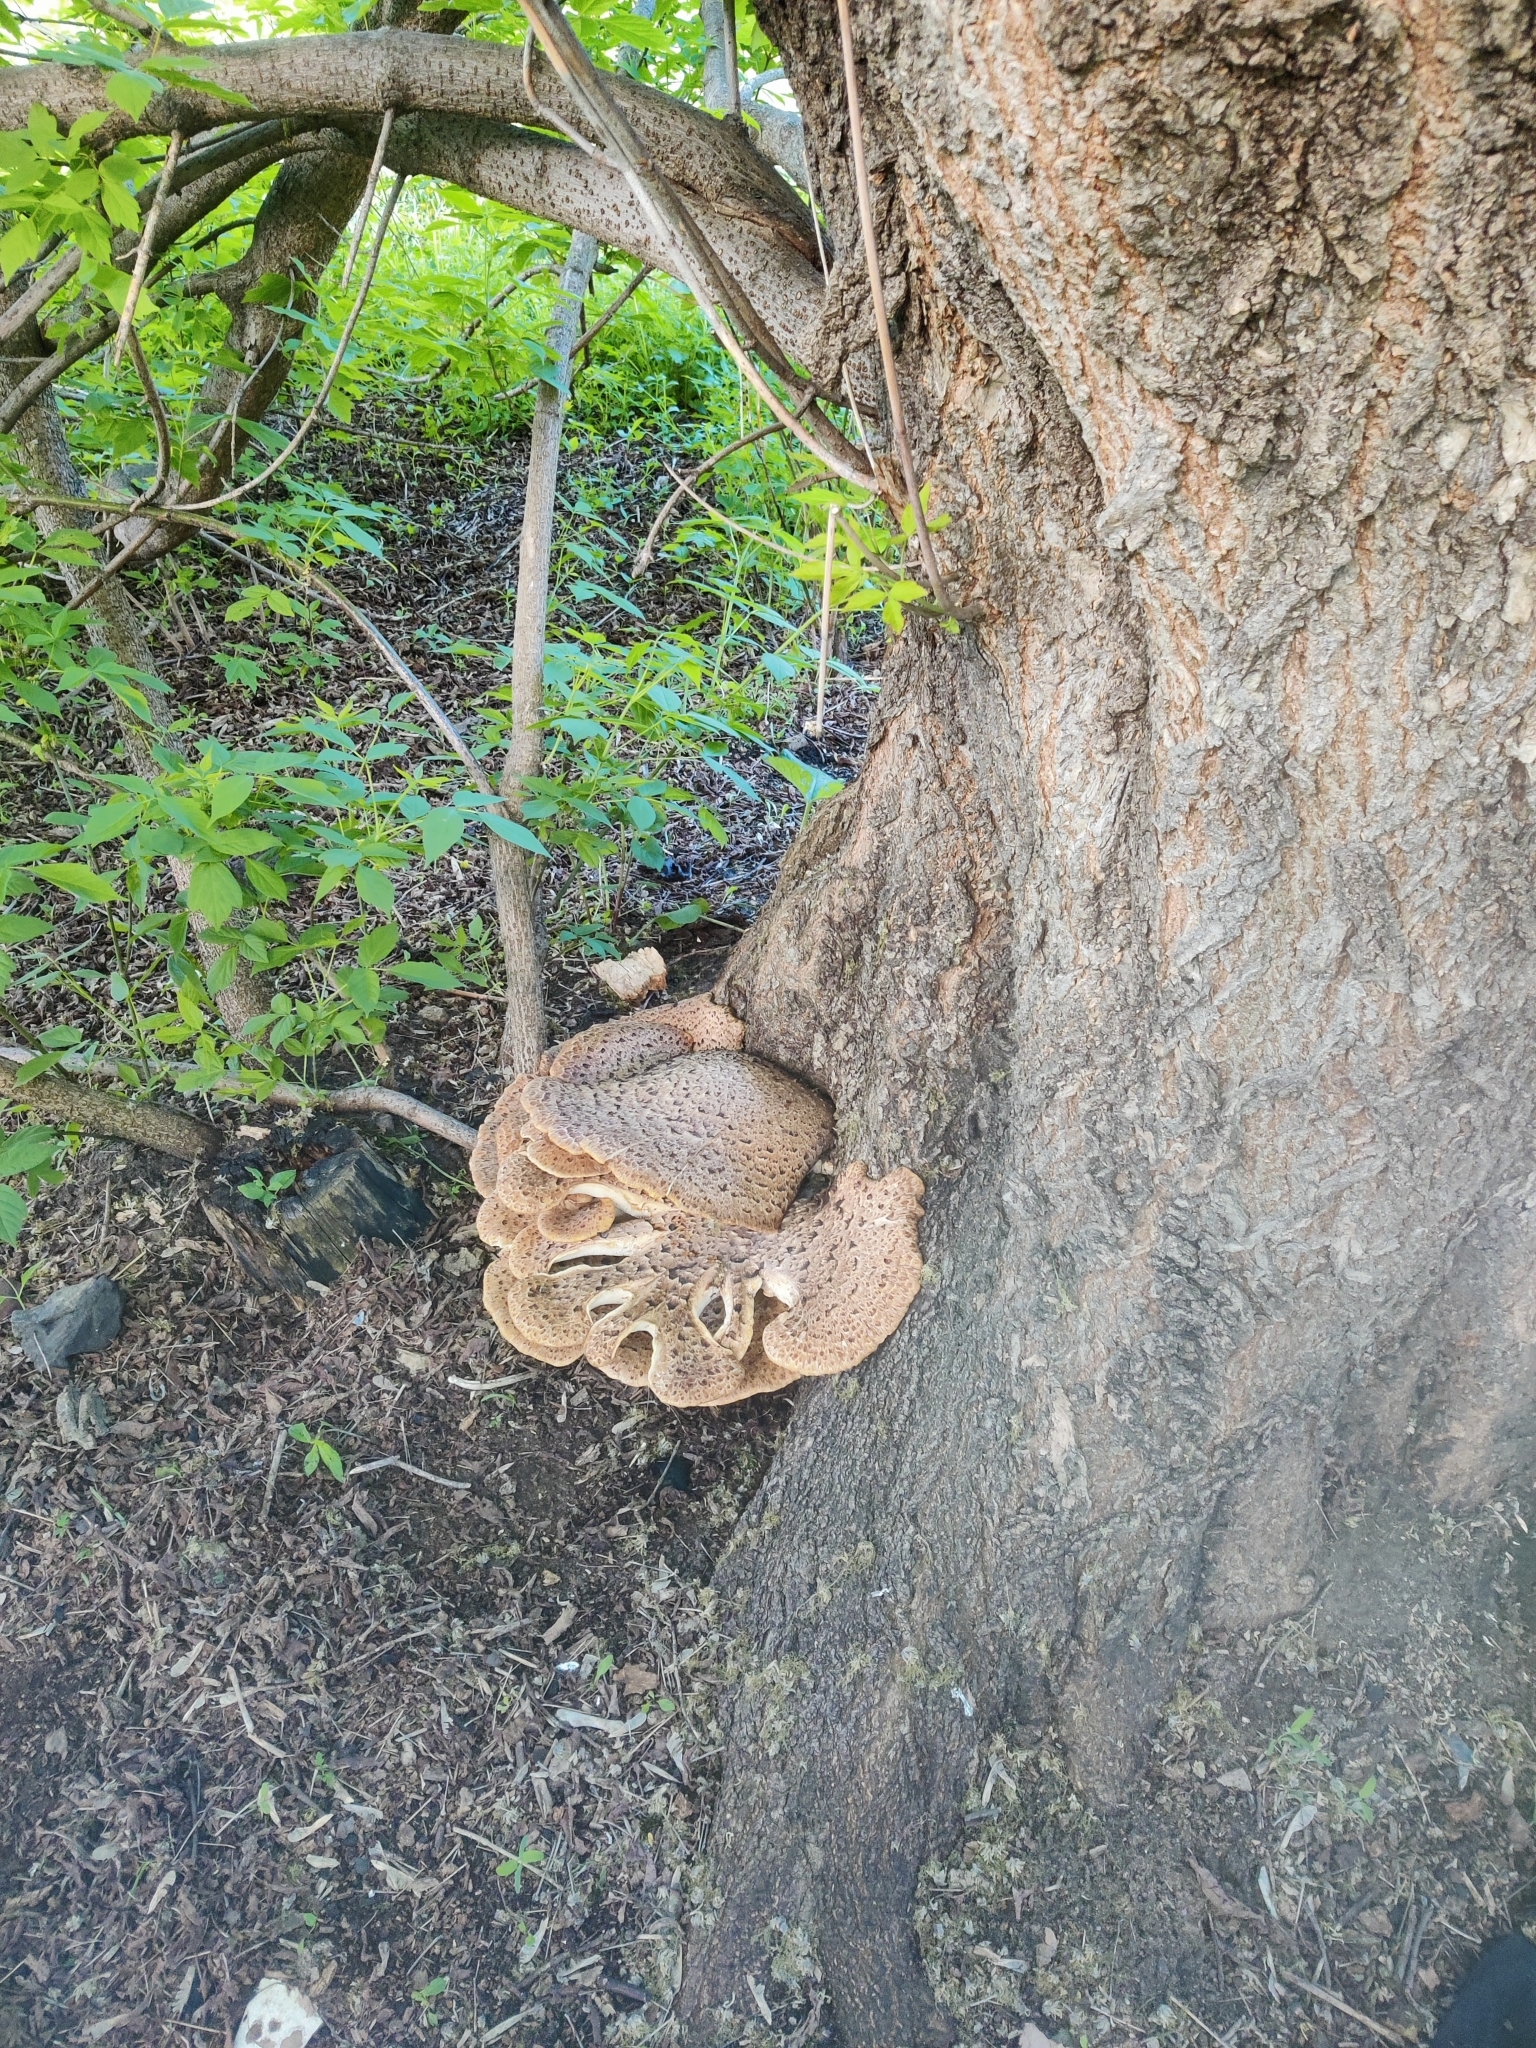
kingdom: Fungi
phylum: Basidiomycota
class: Agaricomycetes
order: Polyporales
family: Polyporaceae
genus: Cerioporus
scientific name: Cerioporus squamosus
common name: Dryad's saddle
